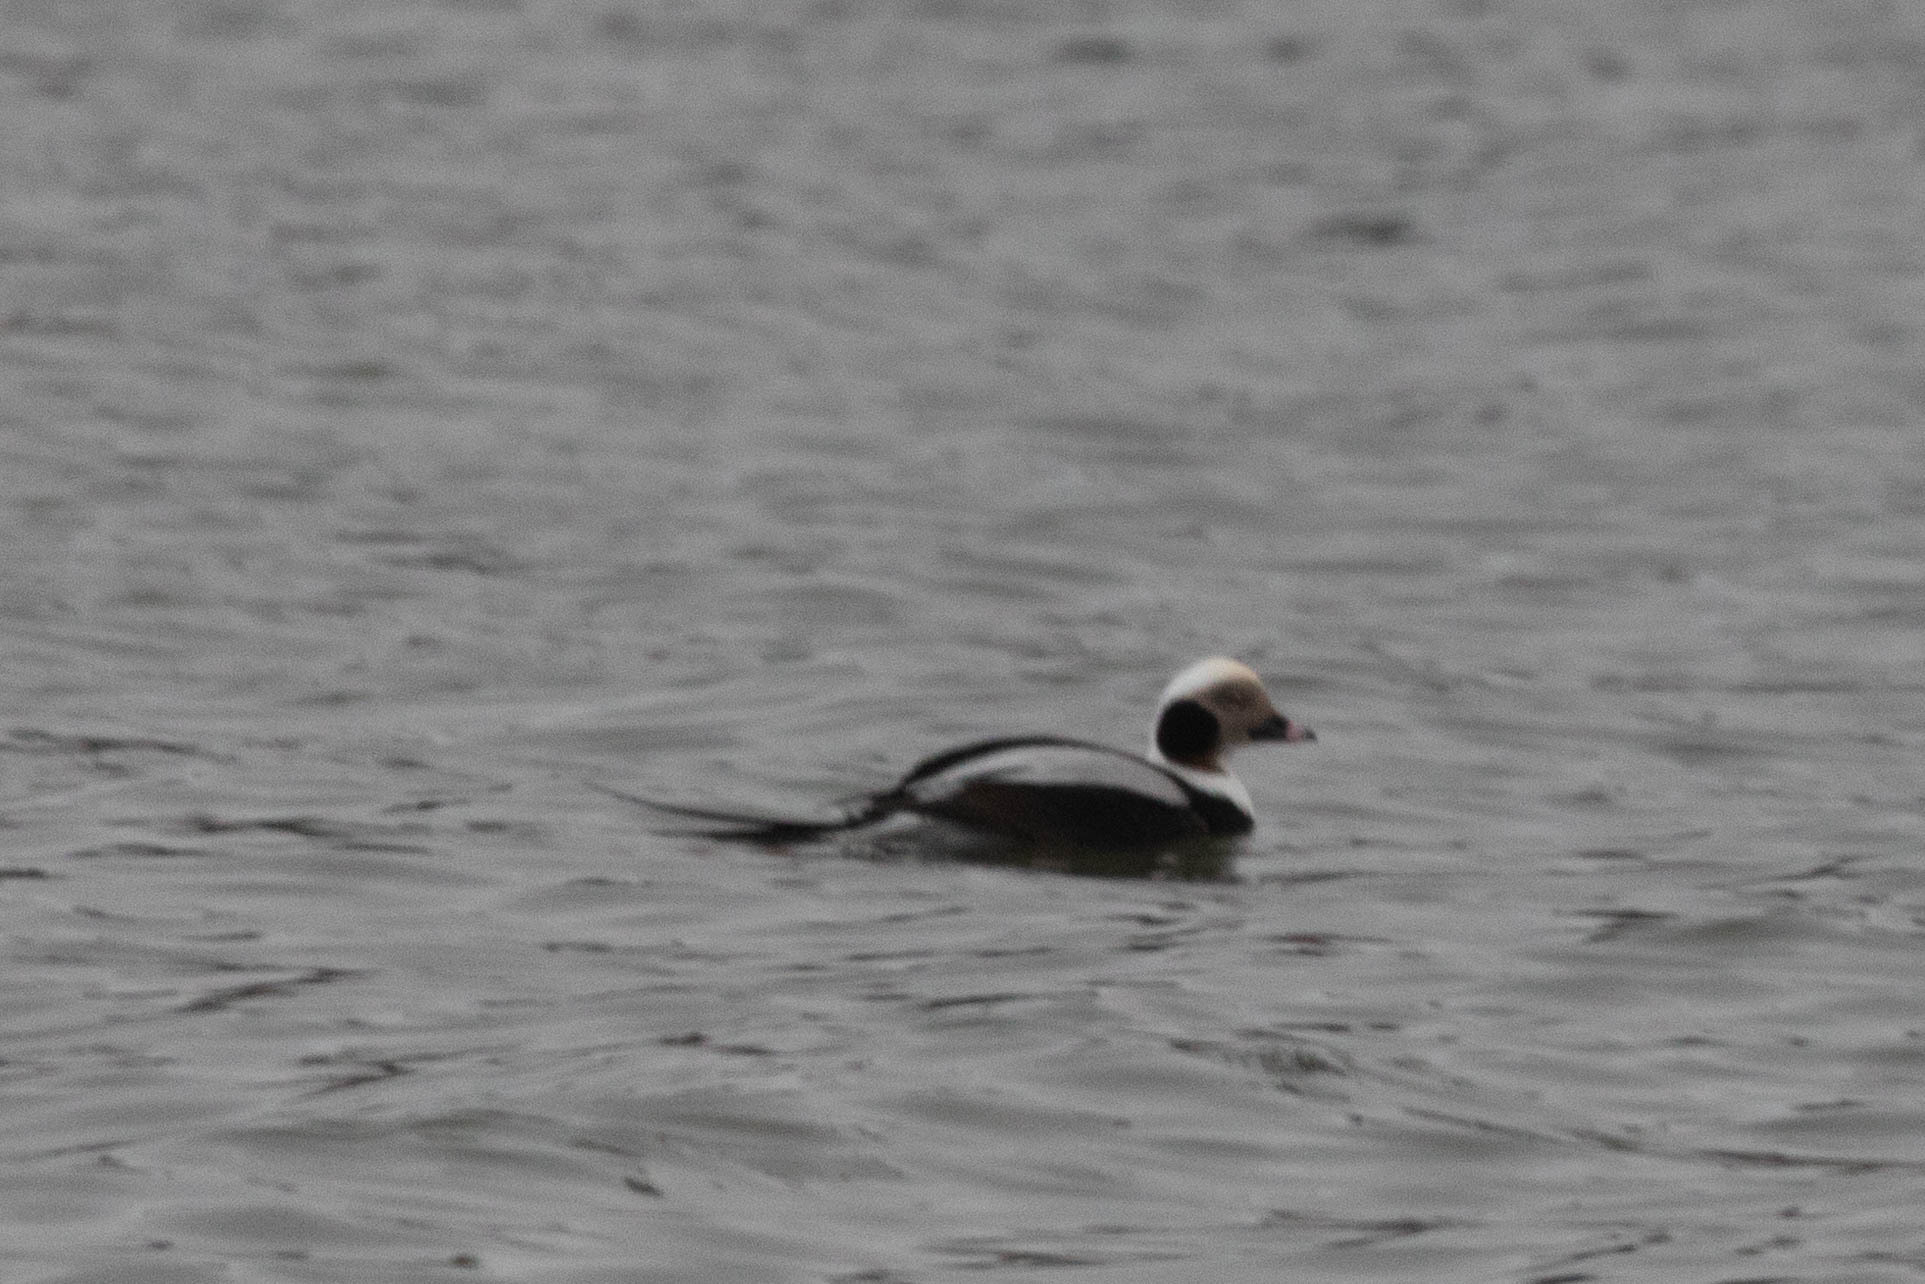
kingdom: Animalia
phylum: Chordata
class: Aves
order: Anseriformes
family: Anatidae
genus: Clangula
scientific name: Clangula hyemalis
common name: Long-tailed duck
